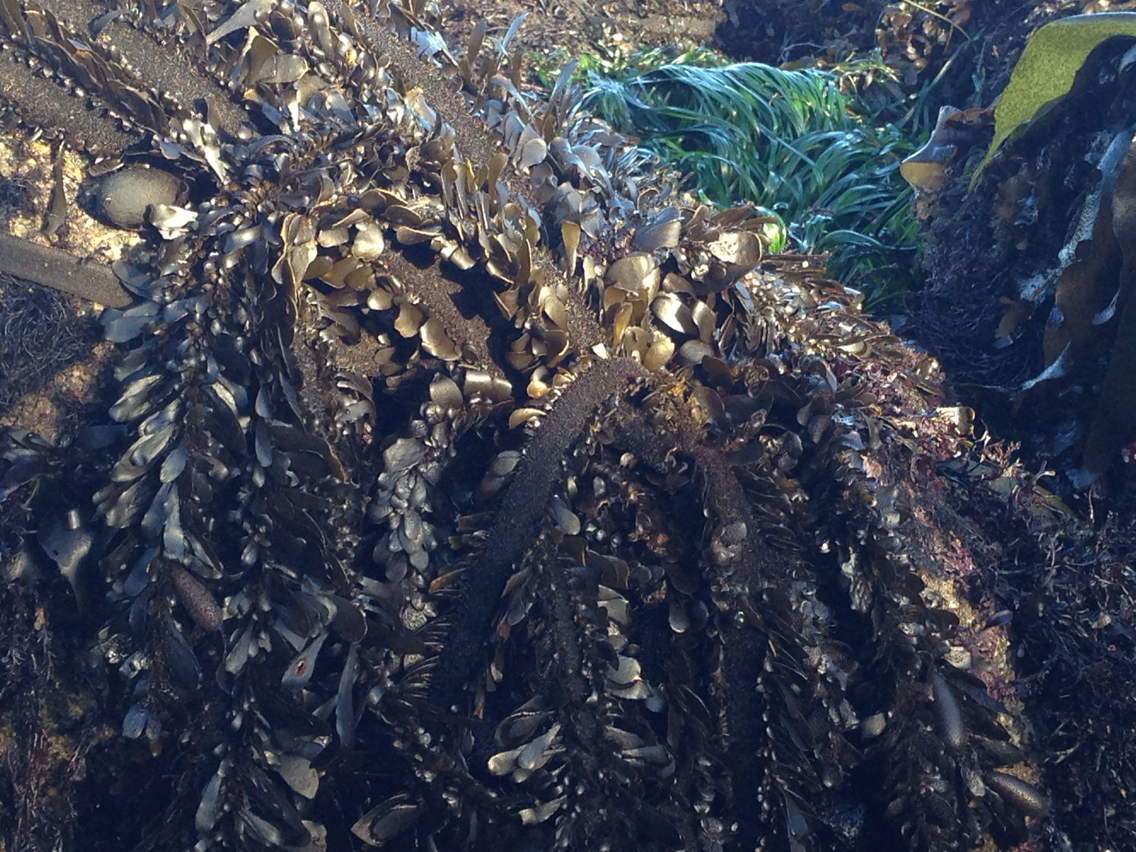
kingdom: Chromista
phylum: Ochrophyta
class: Phaeophyceae
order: Laminariales
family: Lessoniaceae
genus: Egregia
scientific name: Egregia menziesii
